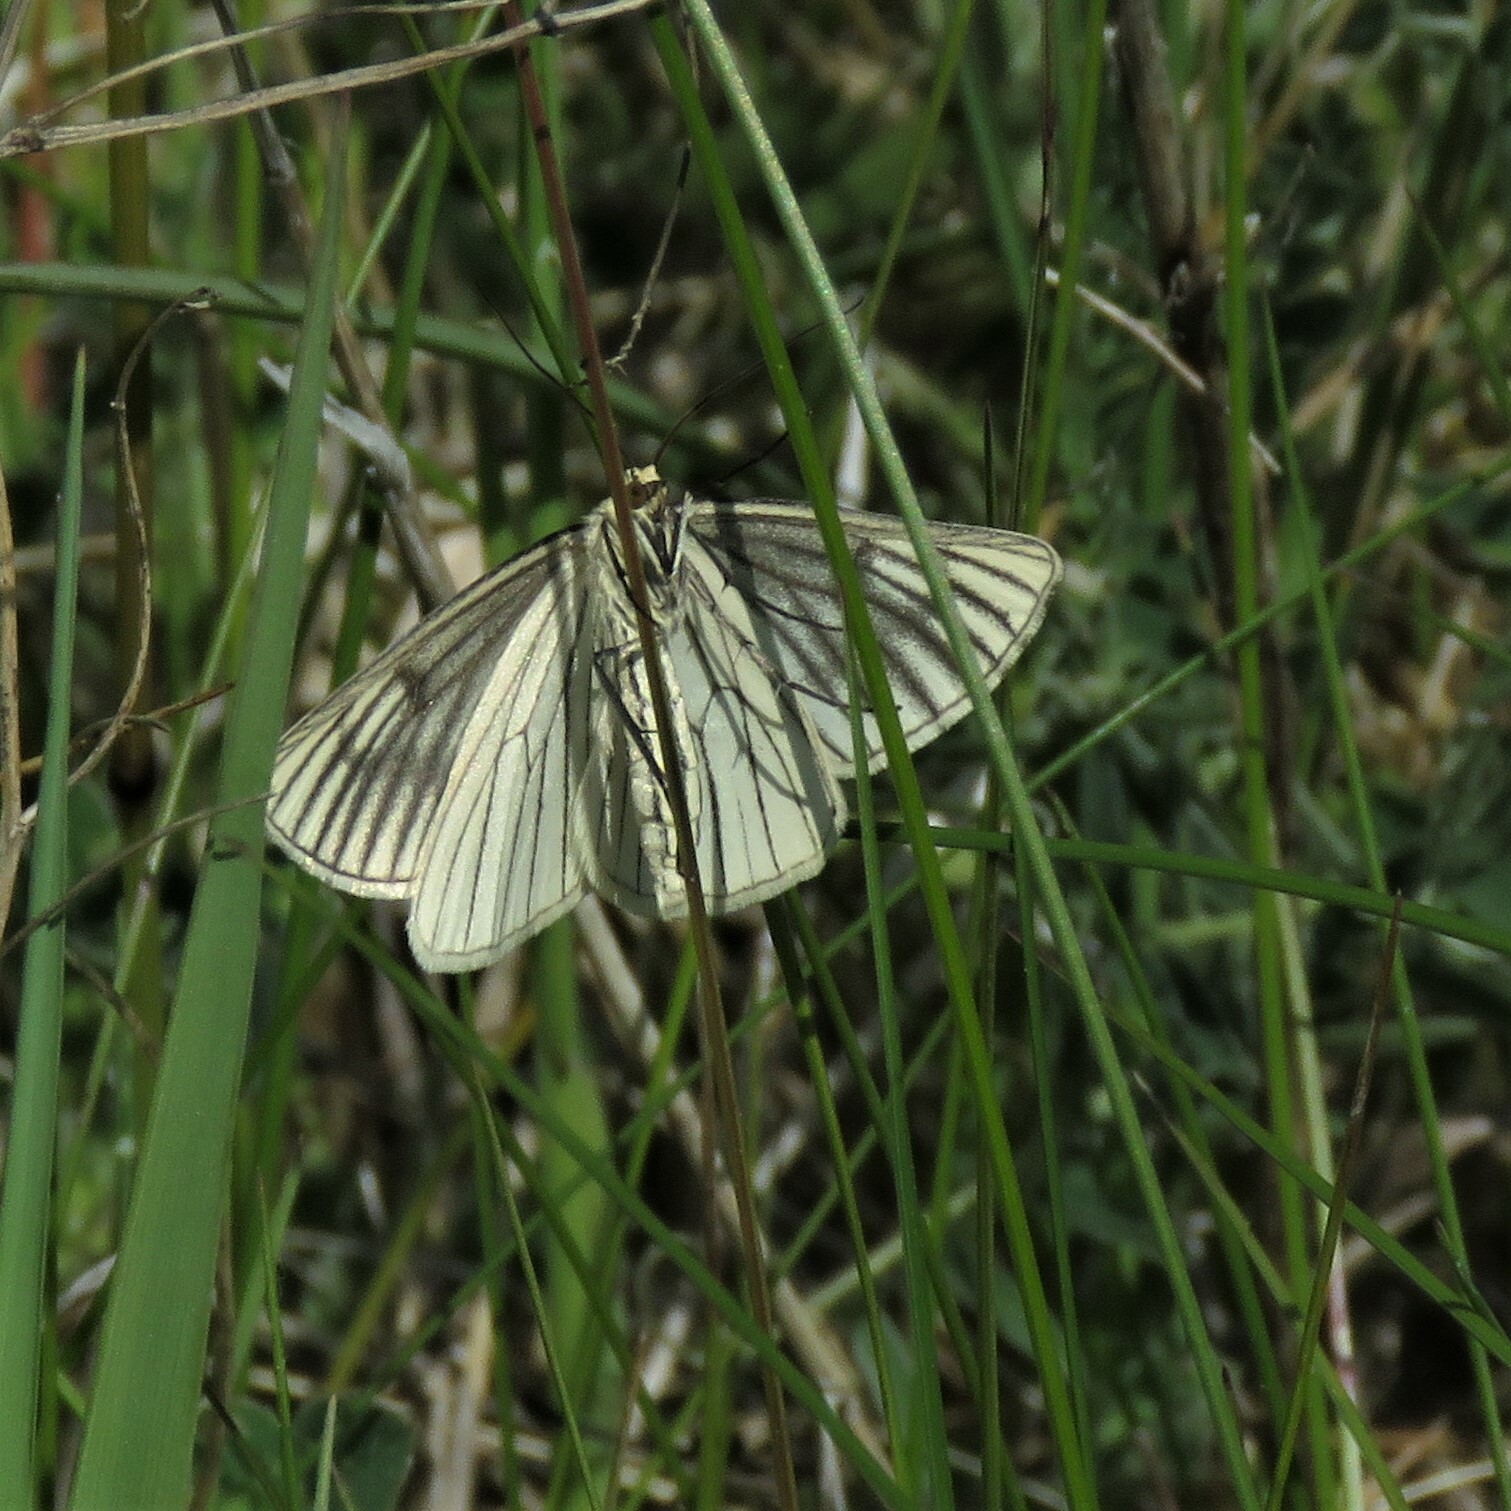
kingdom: Animalia
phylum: Arthropoda
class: Insecta
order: Lepidoptera
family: Geometridae
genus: Siona
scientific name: Siona lineata
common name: Black-veined moth
